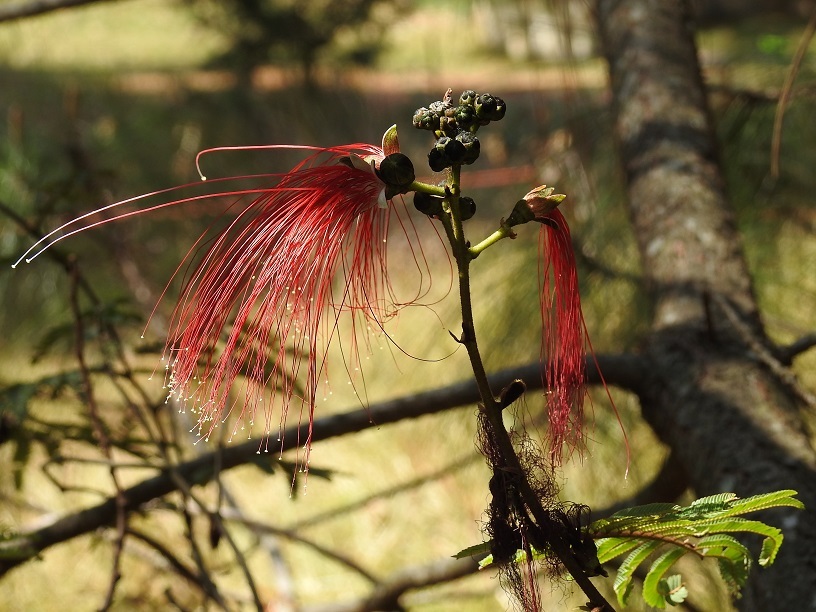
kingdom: Plantae
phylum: Tracheophyta
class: Magnoliopsida
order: Fabales
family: Fabaceae
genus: Calliandra
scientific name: Calliandra houstoniana
